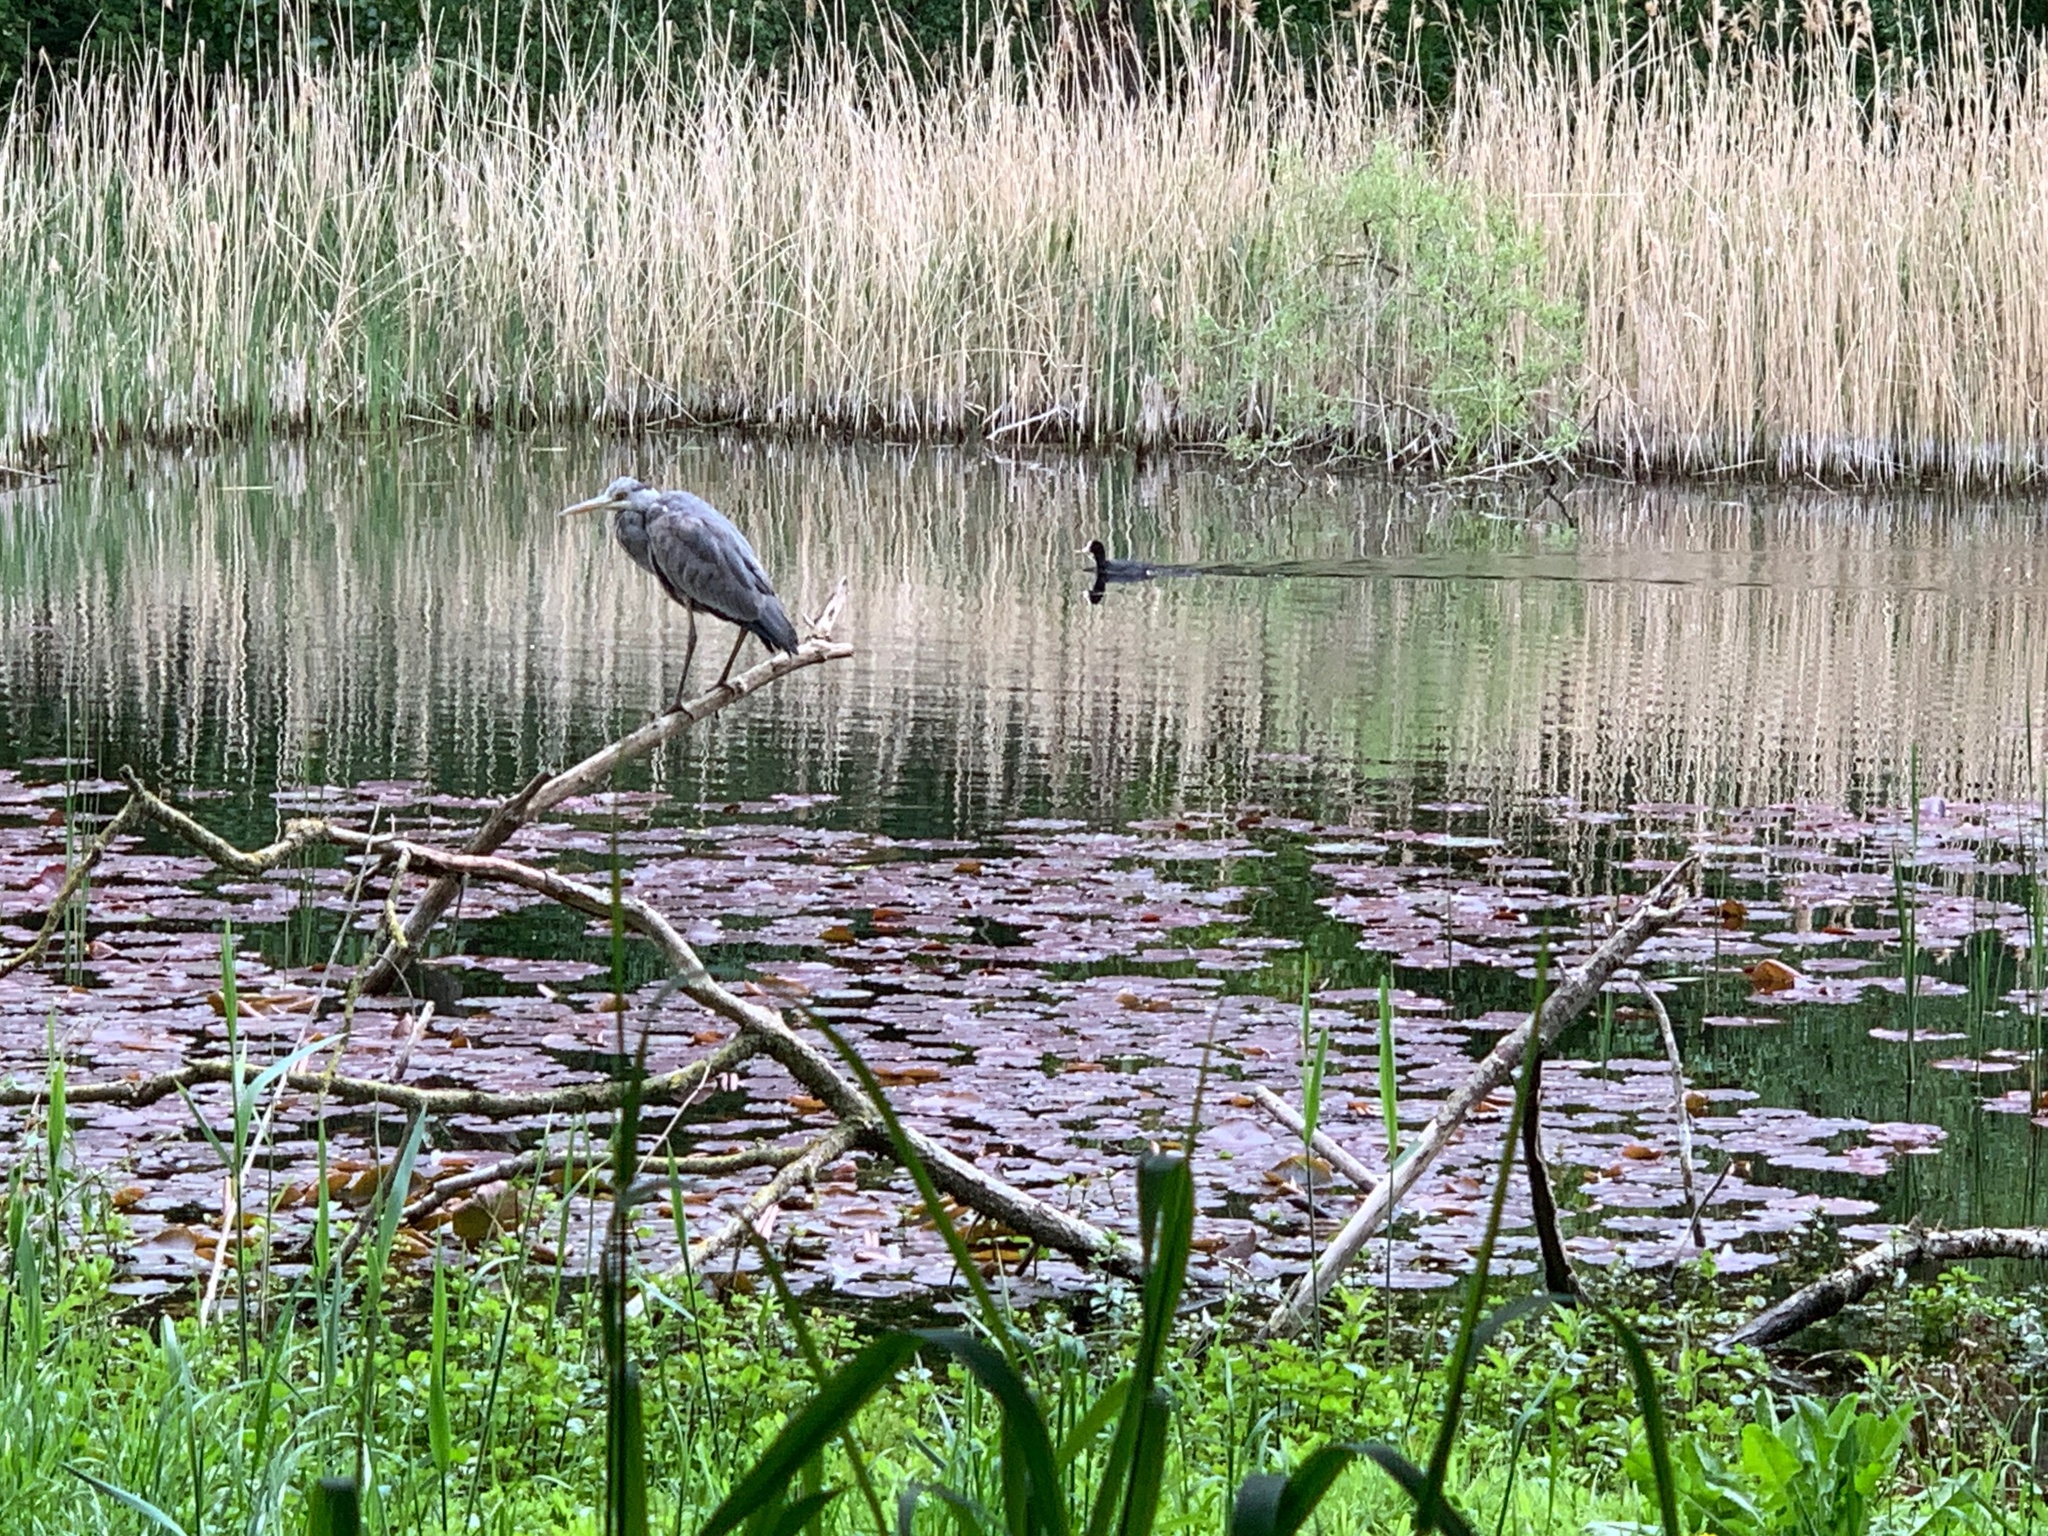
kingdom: Animalia
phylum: Chordata
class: Aves
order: Pelecaniformes
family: Ardeidae
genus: Ardea
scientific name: Ardea cinerea
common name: Grey heron
